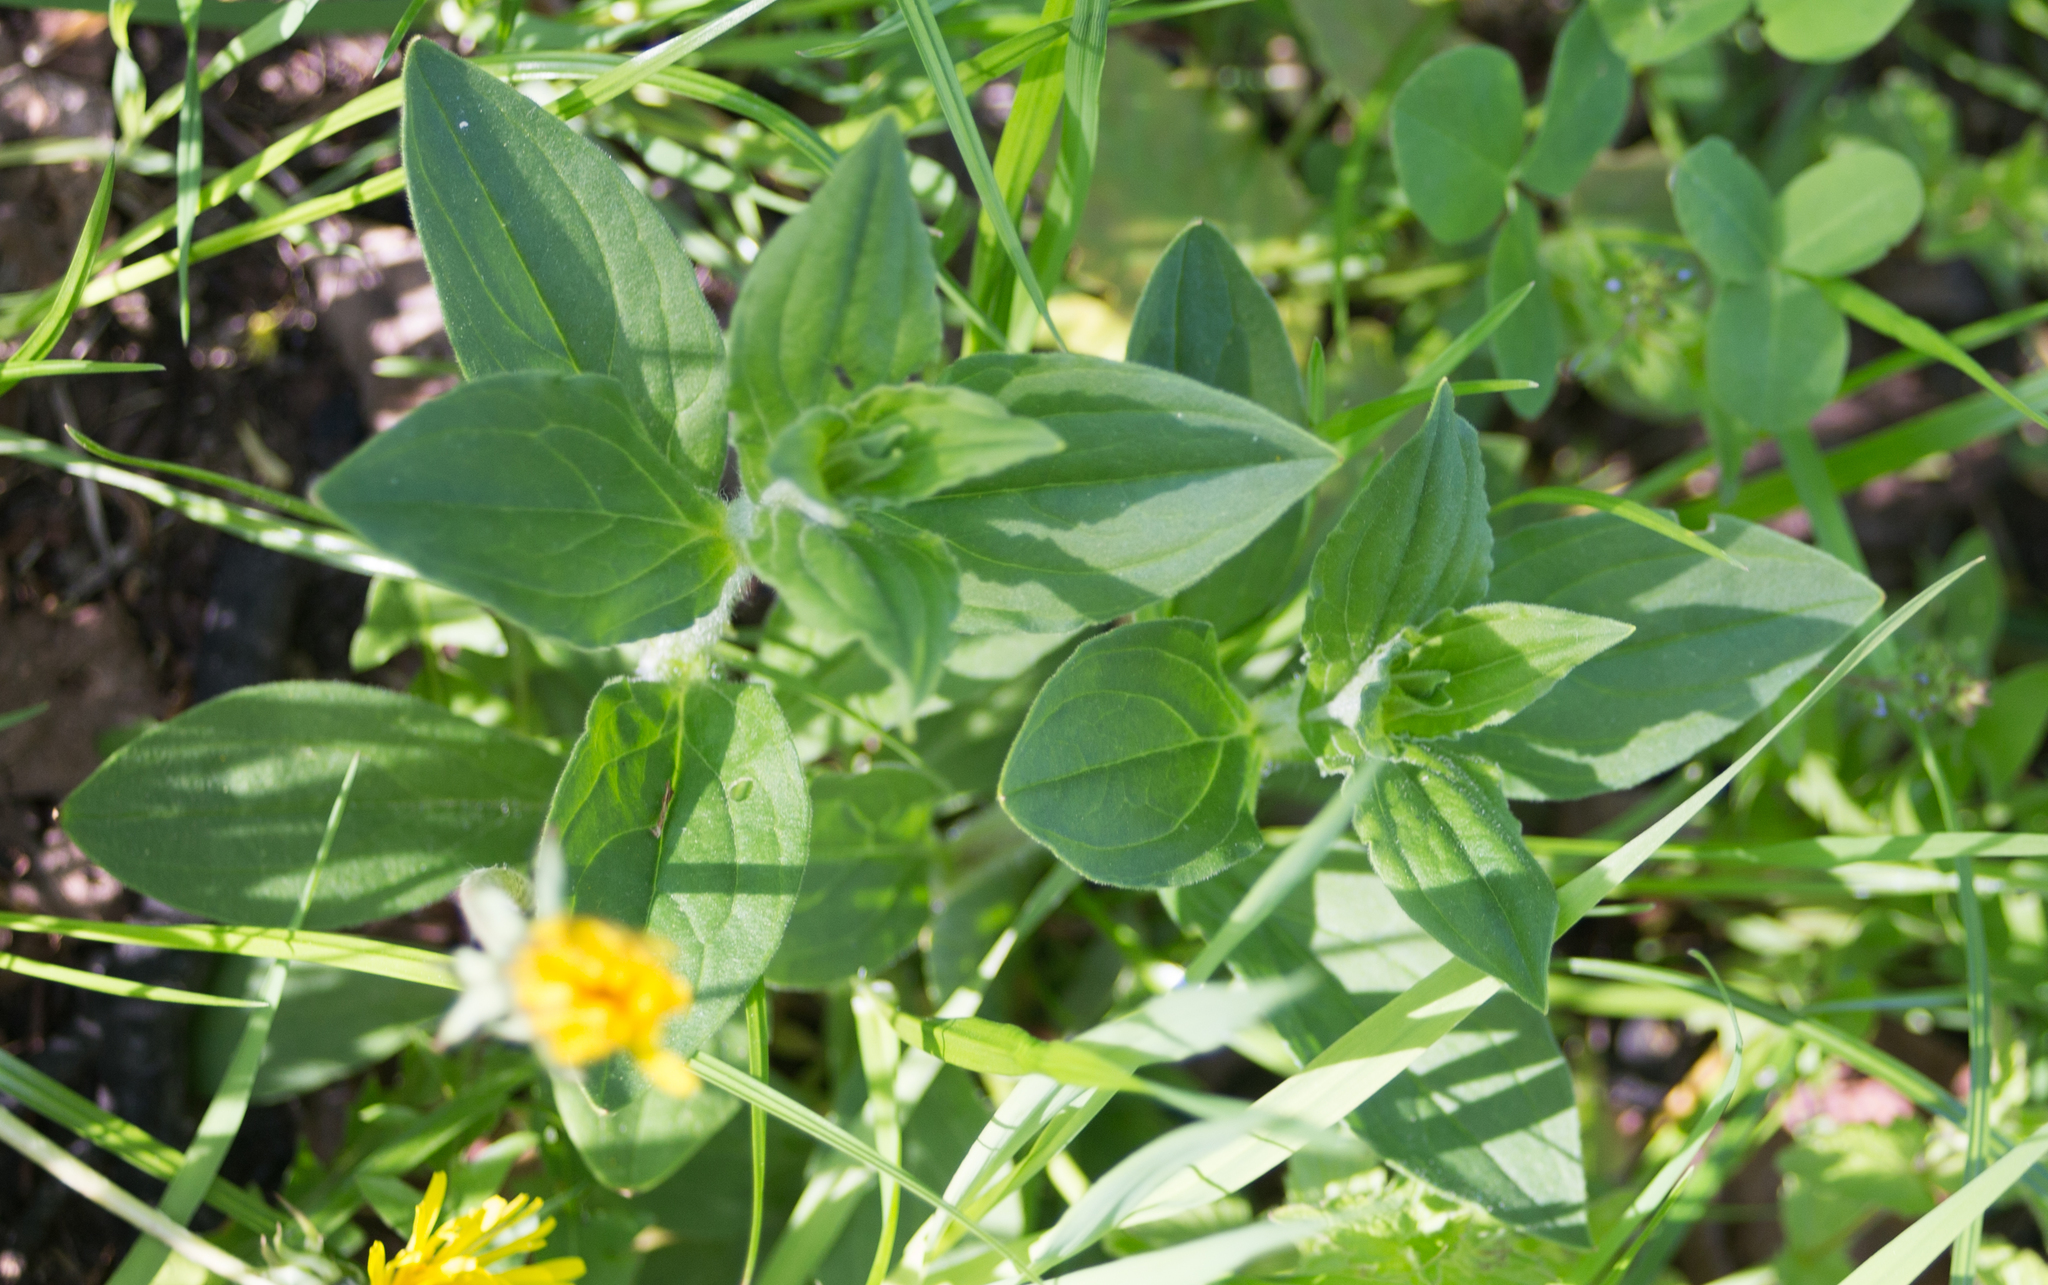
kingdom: Plantae
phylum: Tracheophyta
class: Magnoliopsida
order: Caryophyllales
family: Caryophyllaceae
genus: Silene
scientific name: Silene latifolia
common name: White campion
